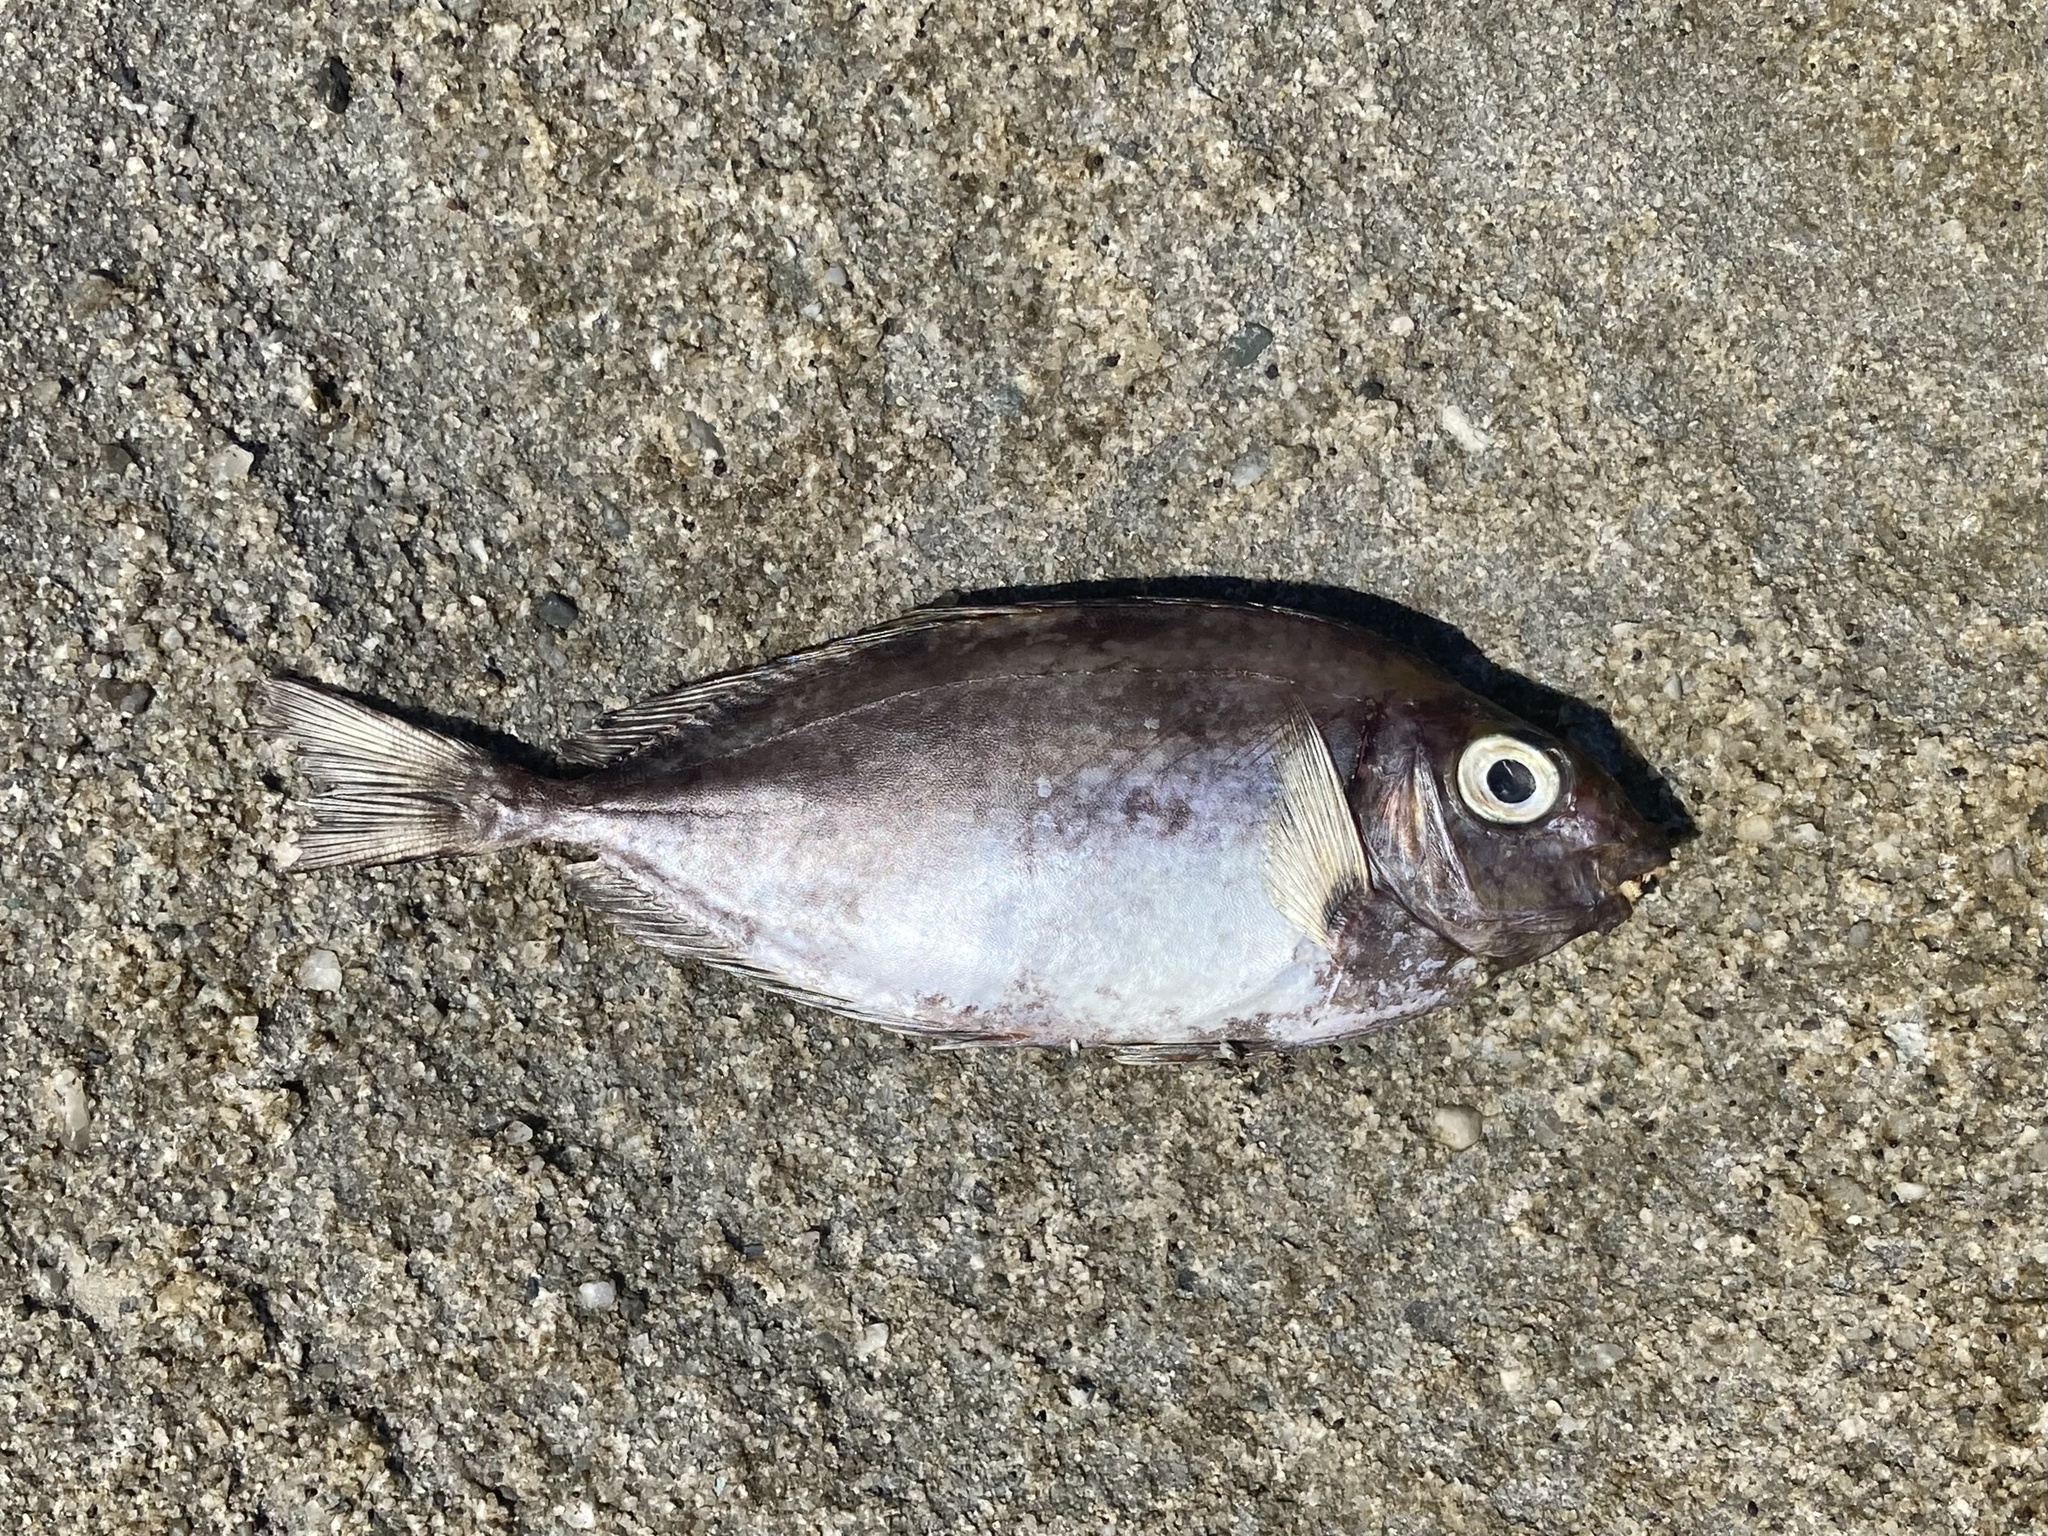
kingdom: Animalia
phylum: Chordata
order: Perciformes
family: Siganidae
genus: Siganus
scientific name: Siganus fuscescens
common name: Dusky rabbitfish
